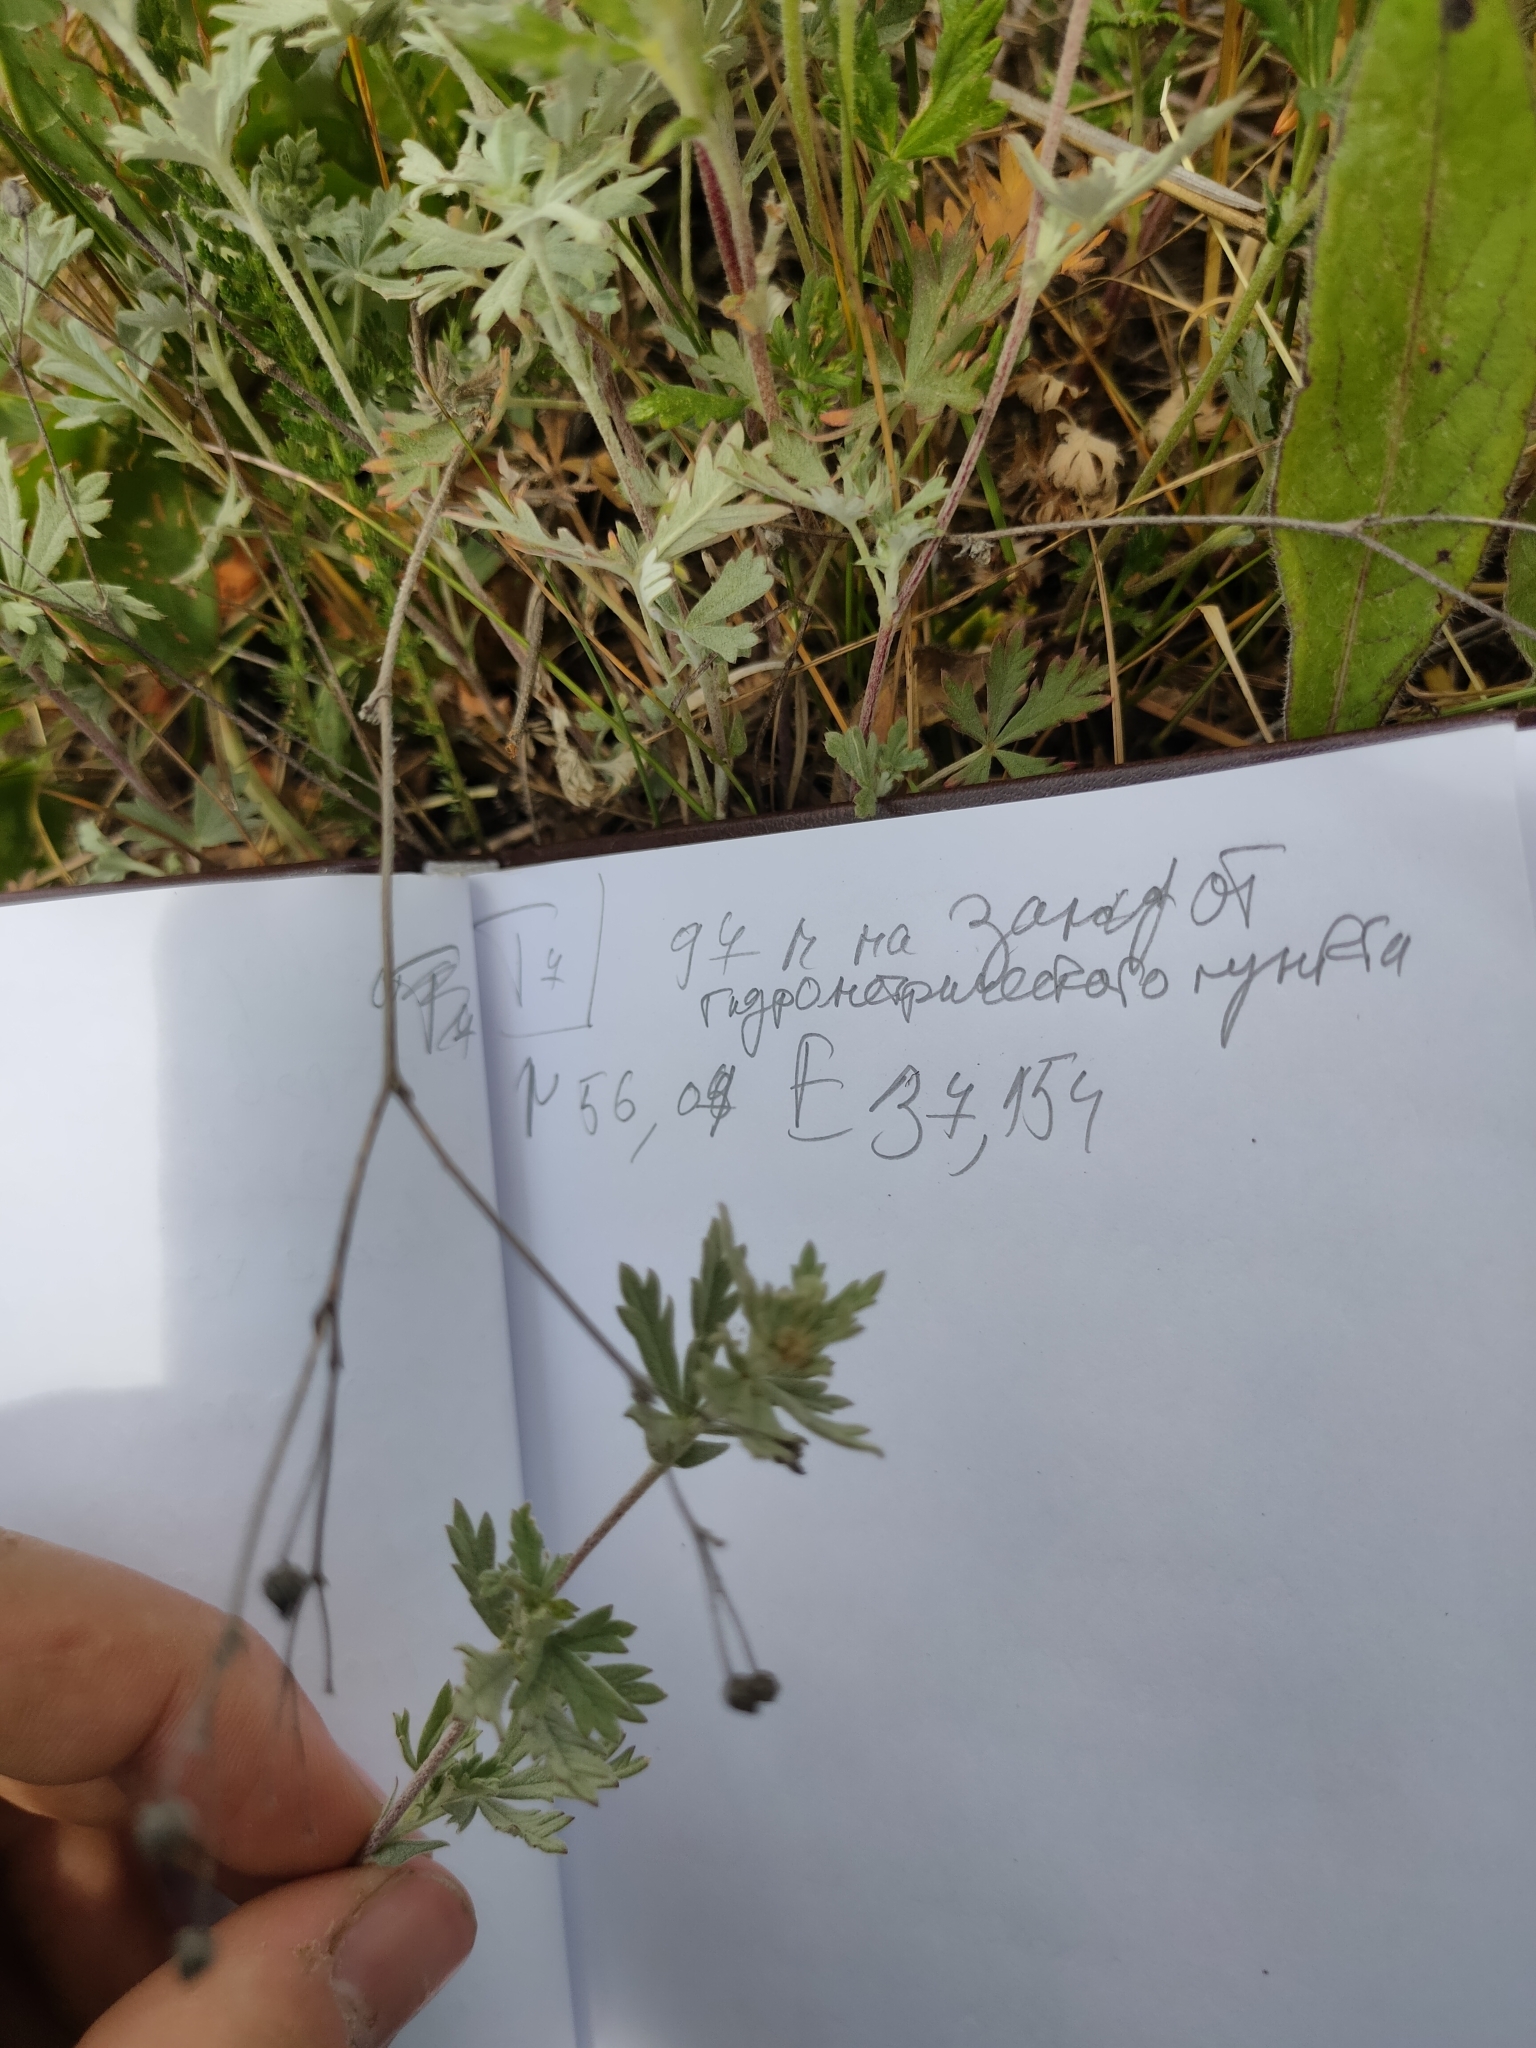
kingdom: Plantae
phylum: Tracheophyta
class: Magnoliopsida
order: Rosales
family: Rosaceae
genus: Potentilla
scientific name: Potentilla argentea
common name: Hoary cinquefoil
